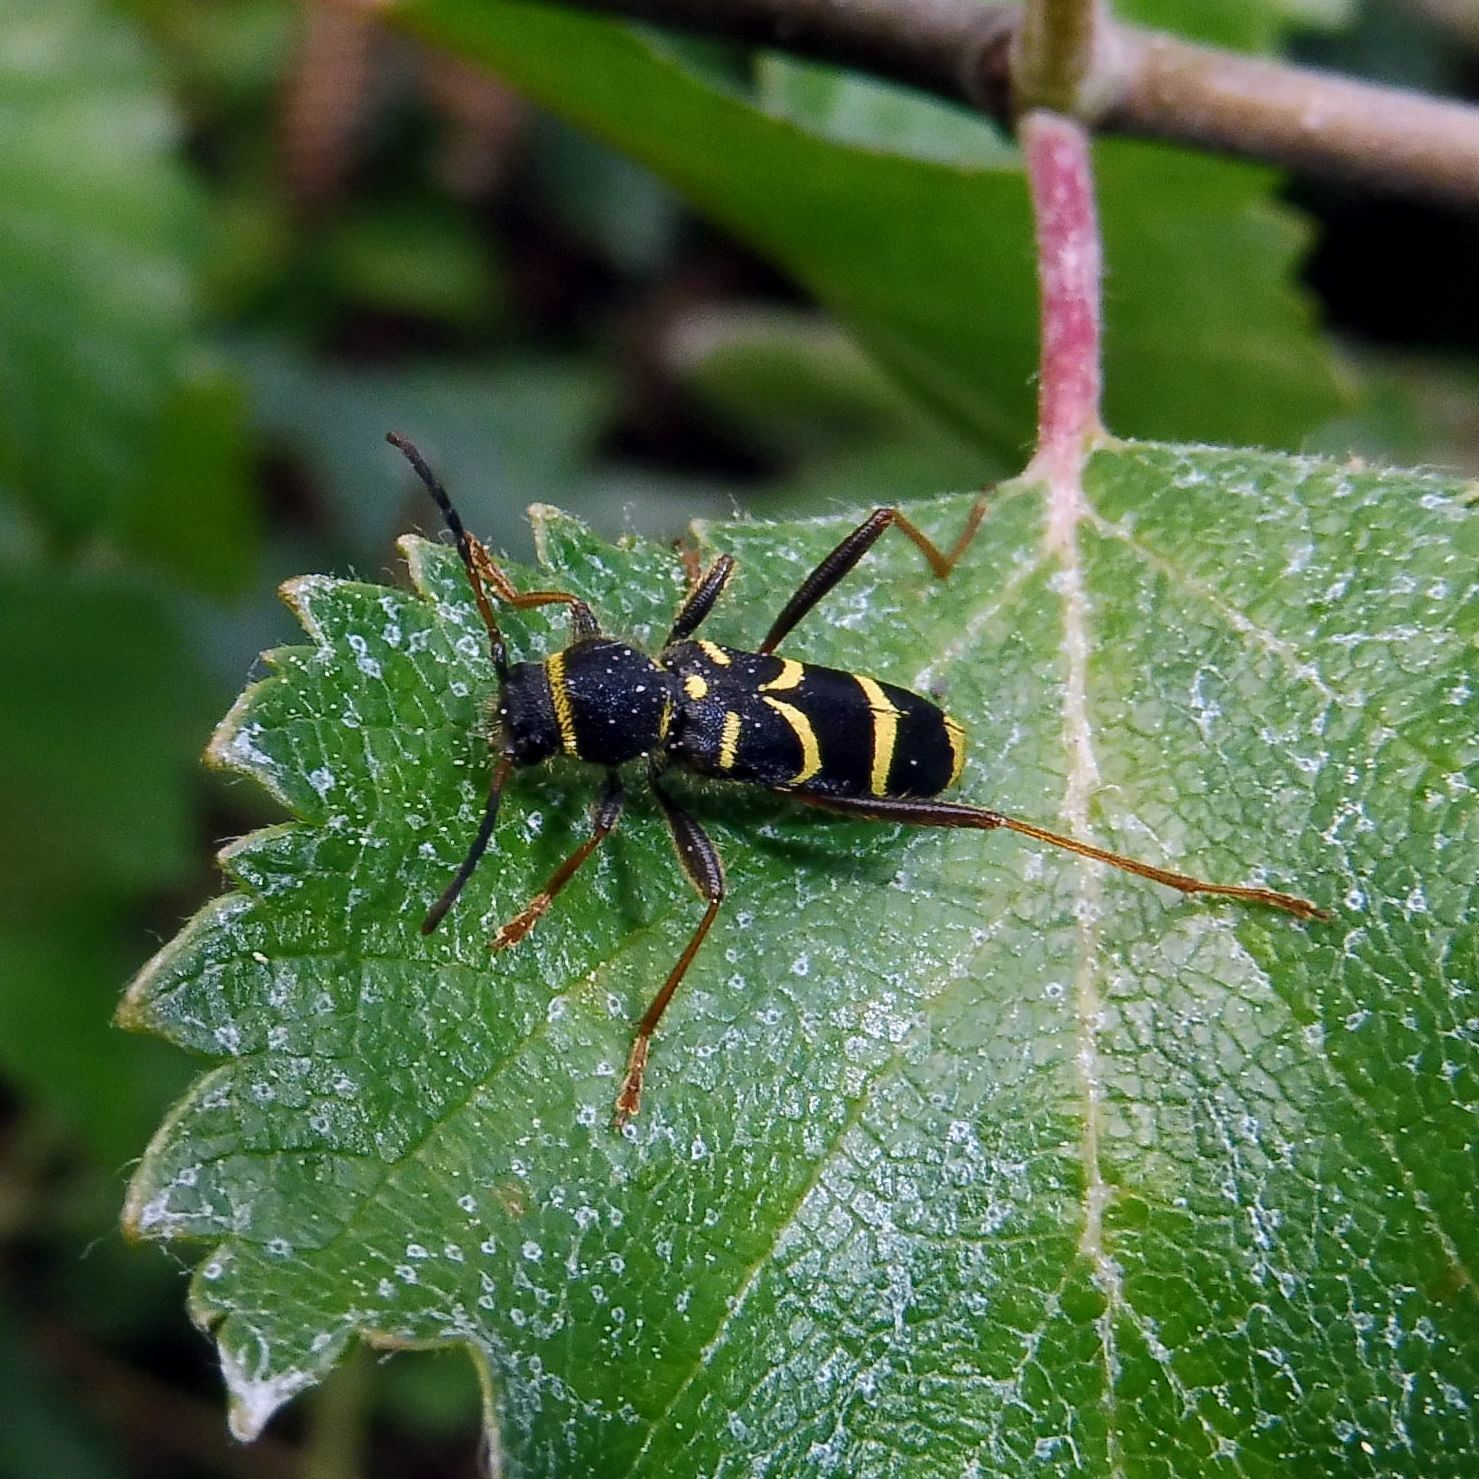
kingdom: Animalia
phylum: Arthropoda
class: Insecta
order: Coleoptera
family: Cerambycidae
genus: Clytus
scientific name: Clytus arietis
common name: Wasp beetle
